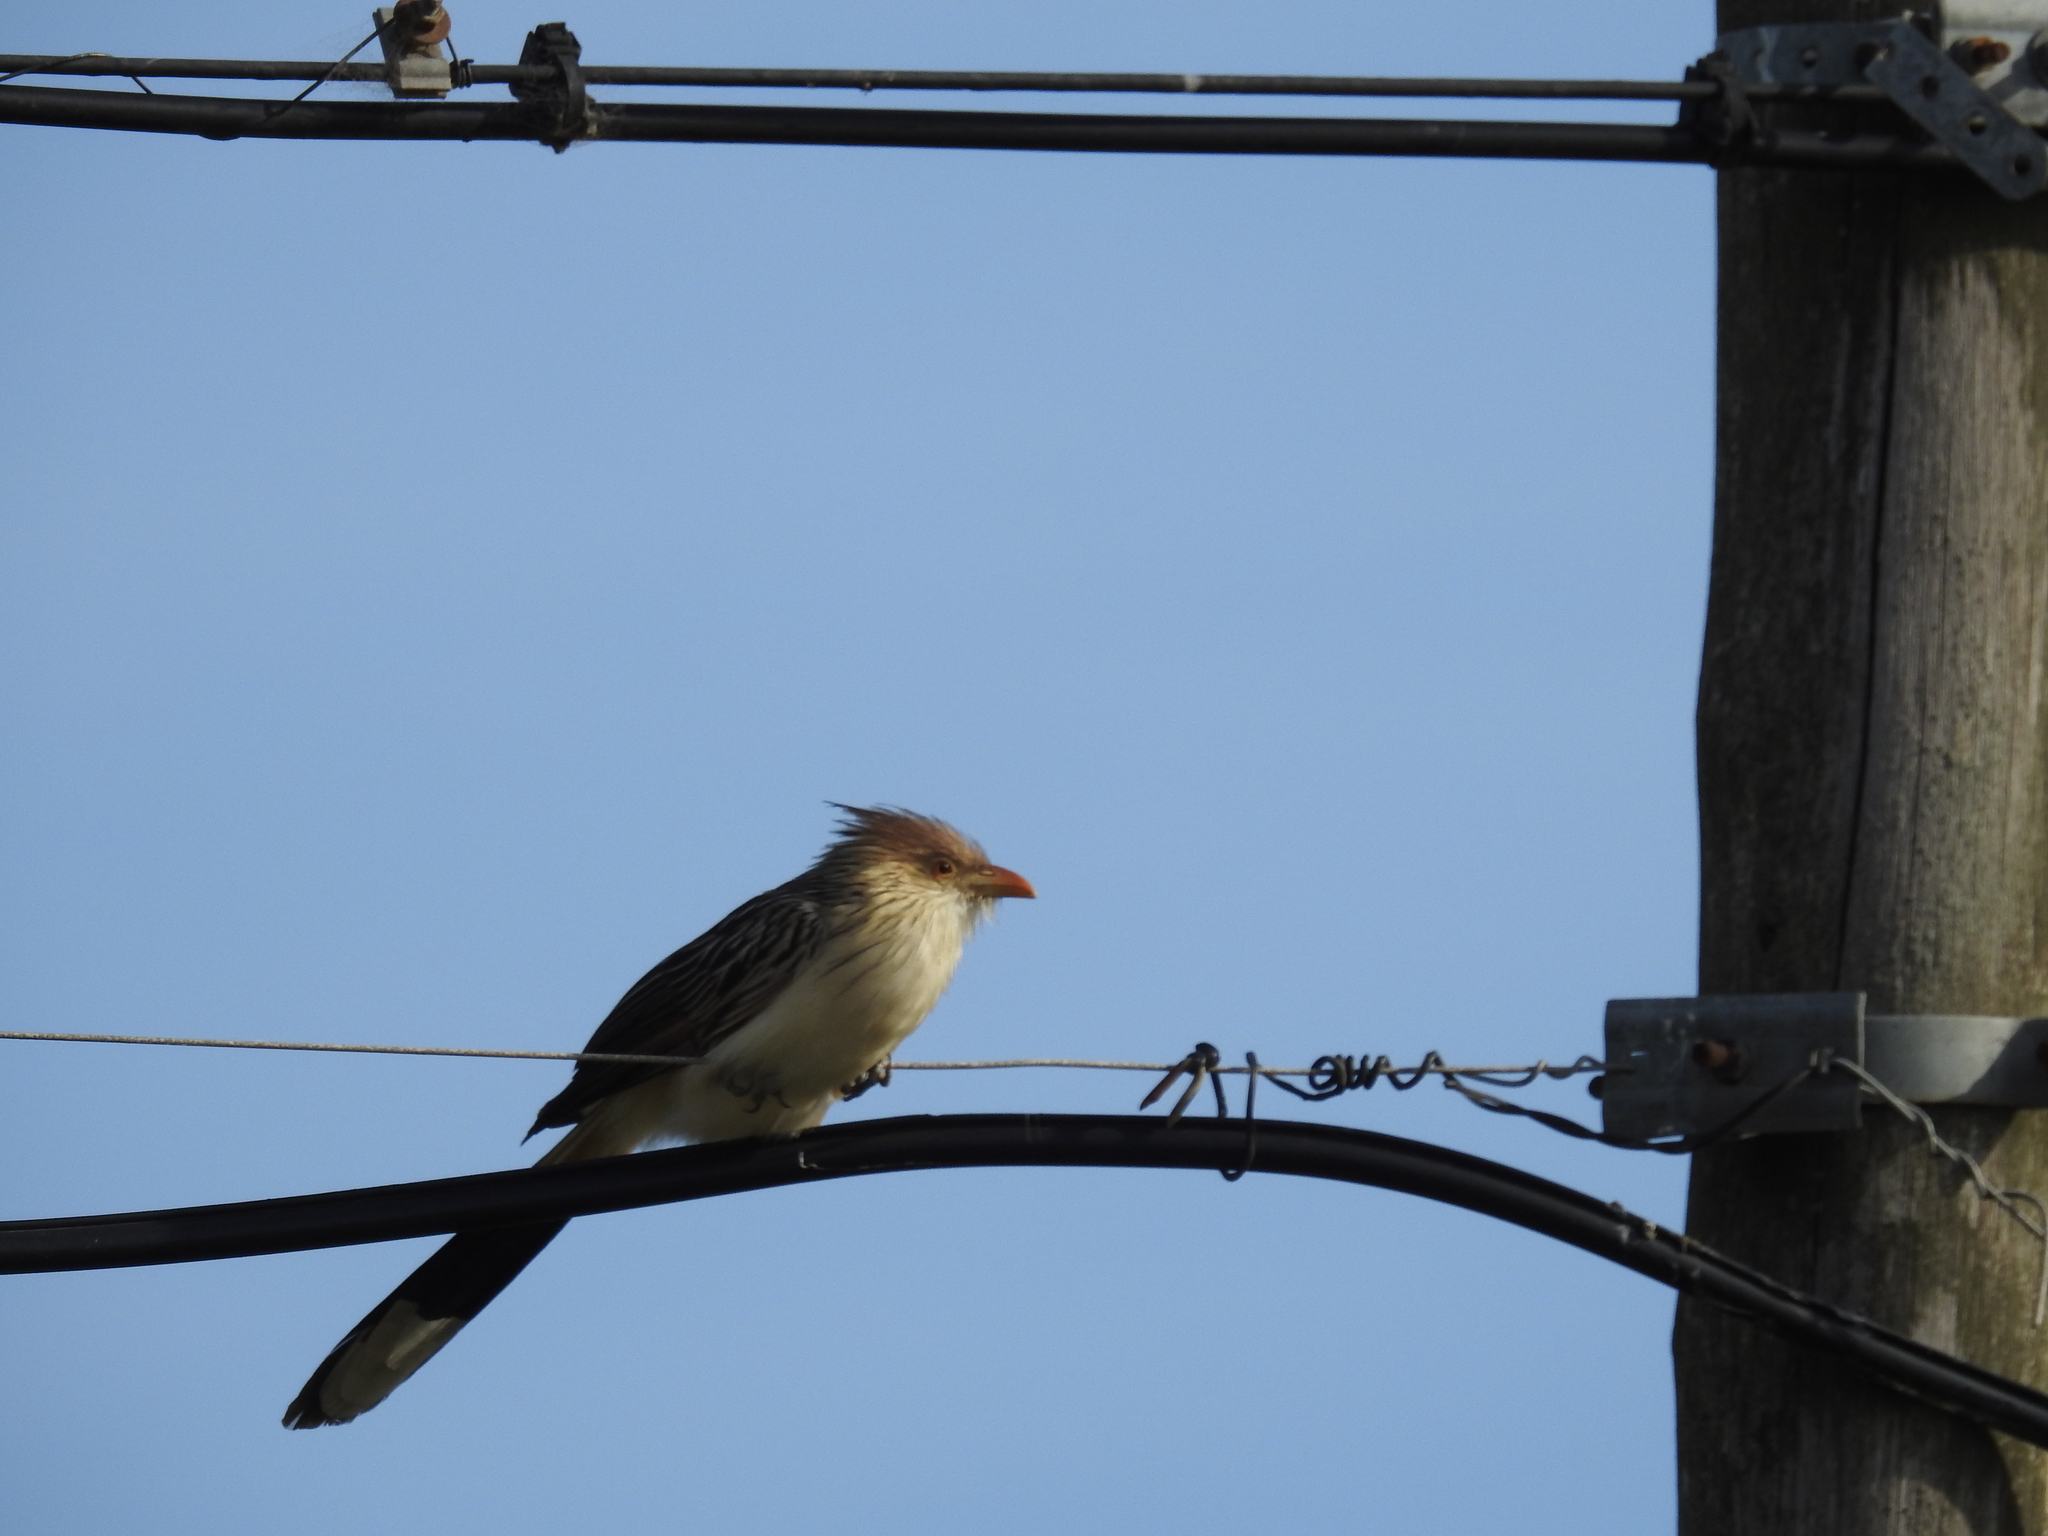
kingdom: Animalia
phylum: Chordata
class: Aves
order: Cuculiformes
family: Cuculidae
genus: Guira
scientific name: Guira guira
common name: Guira cuckoo
